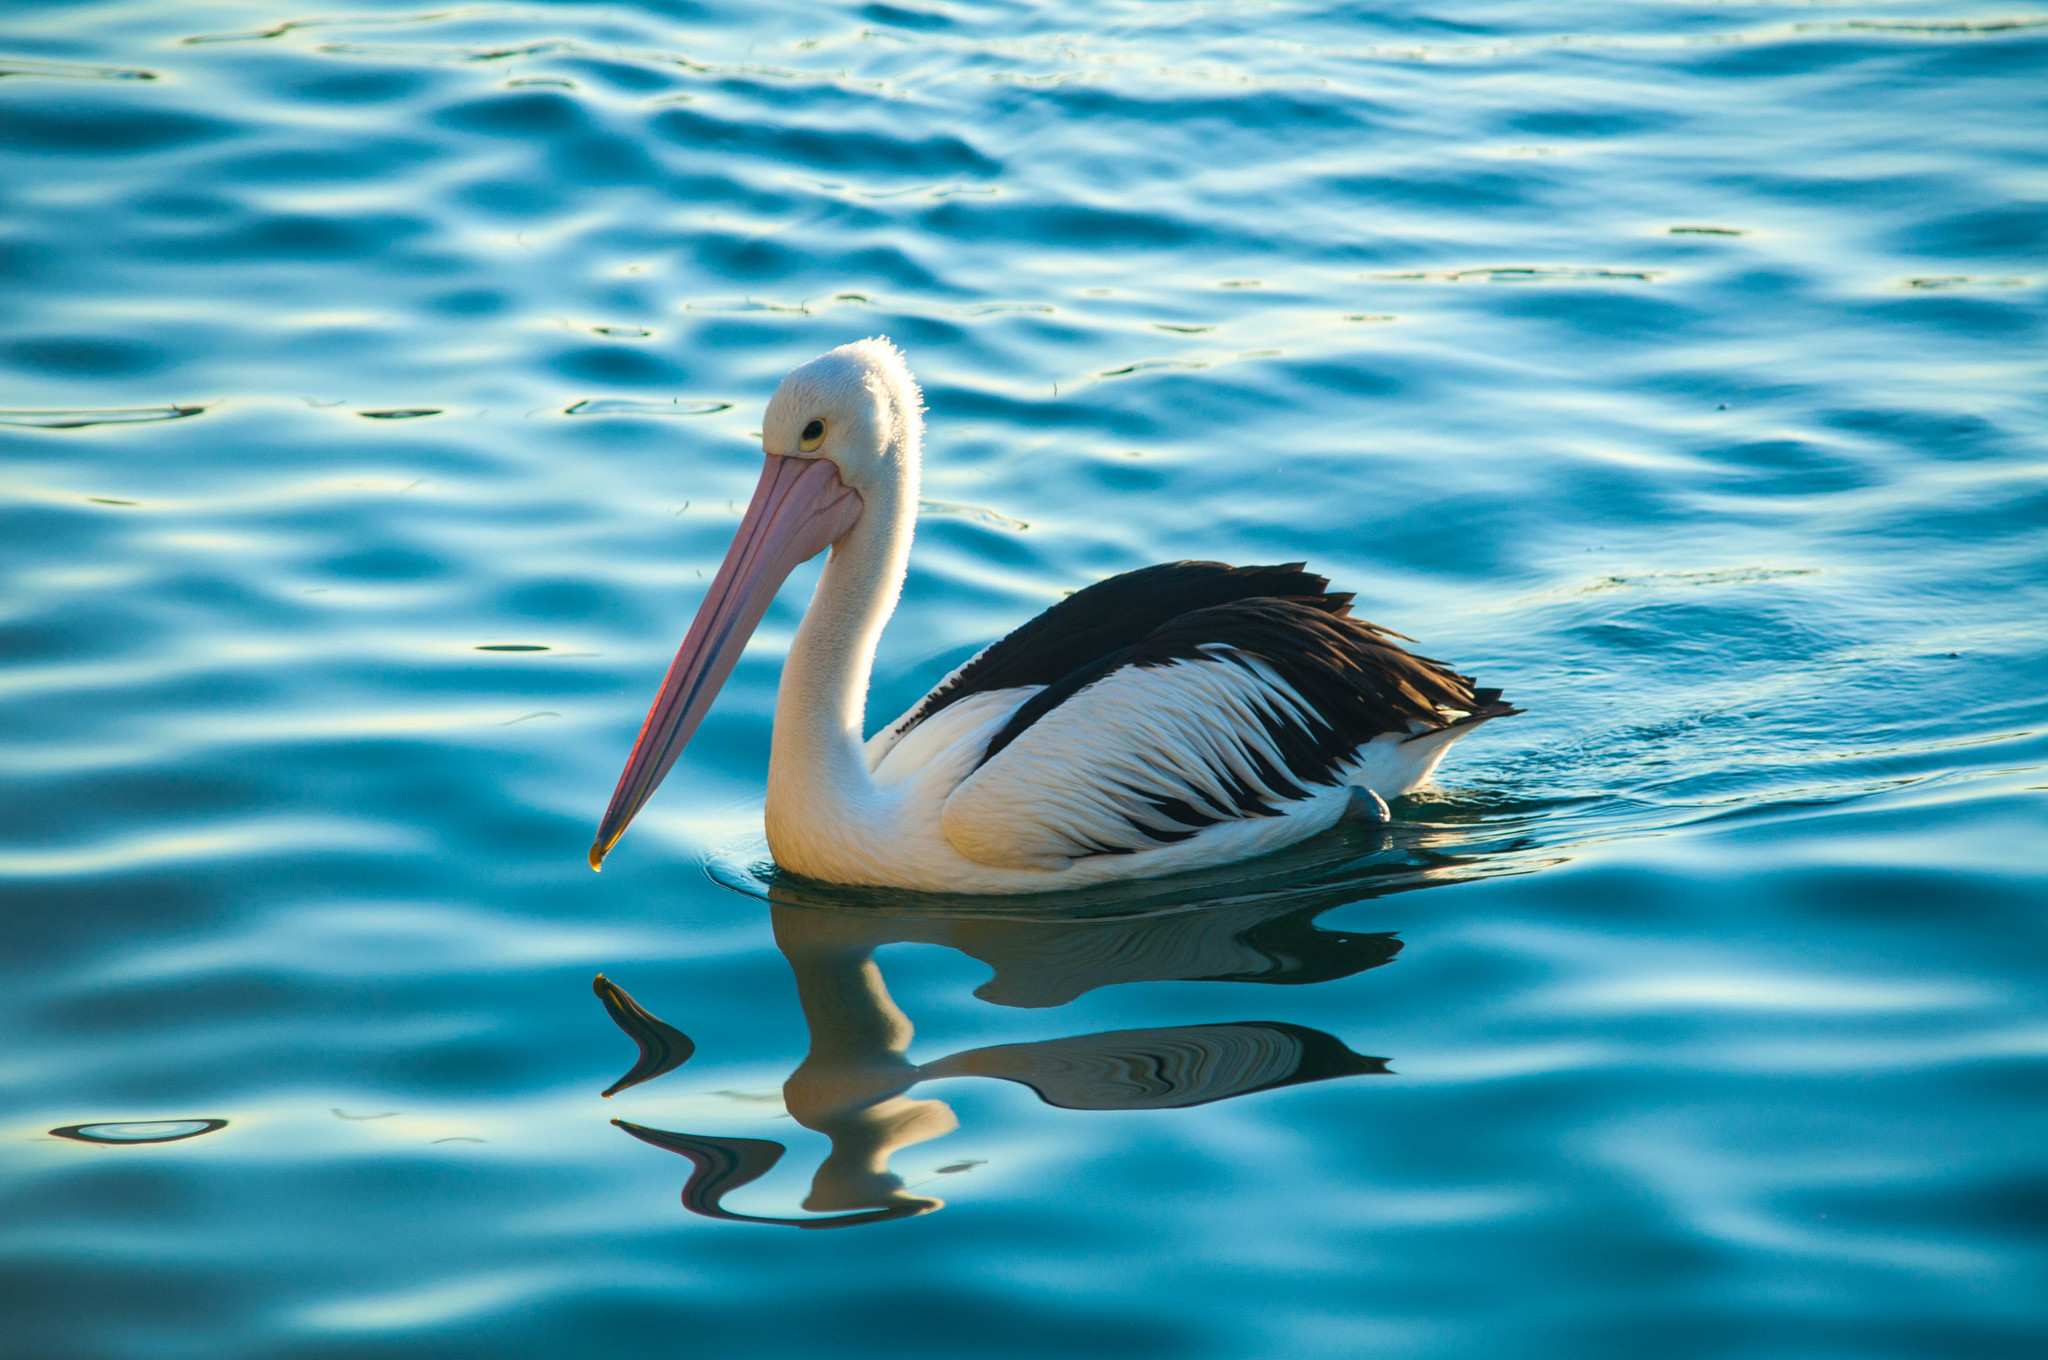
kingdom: Animalia
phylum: Chordata
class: Aves
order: Pelecaniformes
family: Pelecanidae
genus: Pelecanus
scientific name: Pelecanus conspicillatus
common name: Australian pelican
